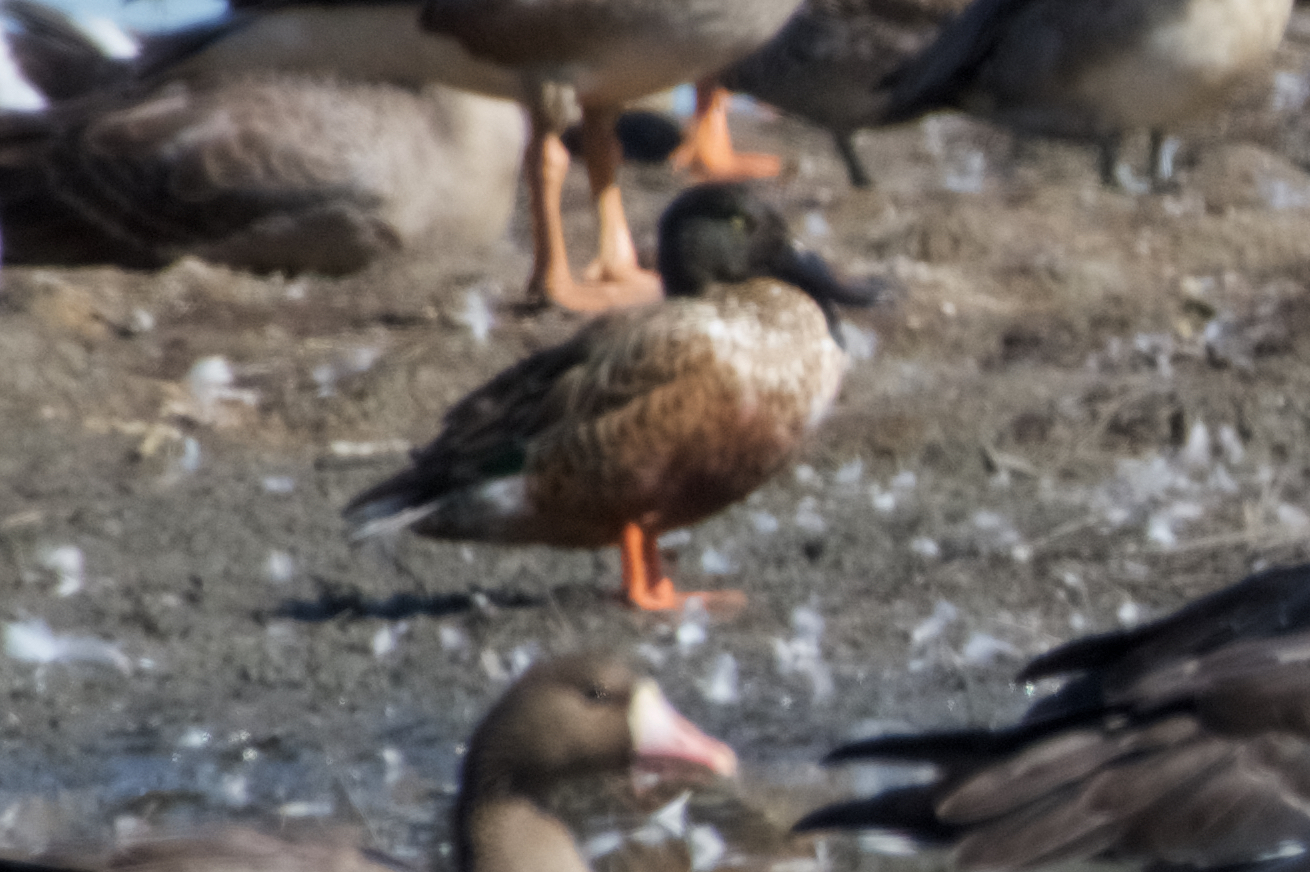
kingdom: Animalia
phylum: Chordata
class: Aves
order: Anseriformes
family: Anatidae
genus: Spatula
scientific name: Spatula clypeata
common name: Northern shoveler
